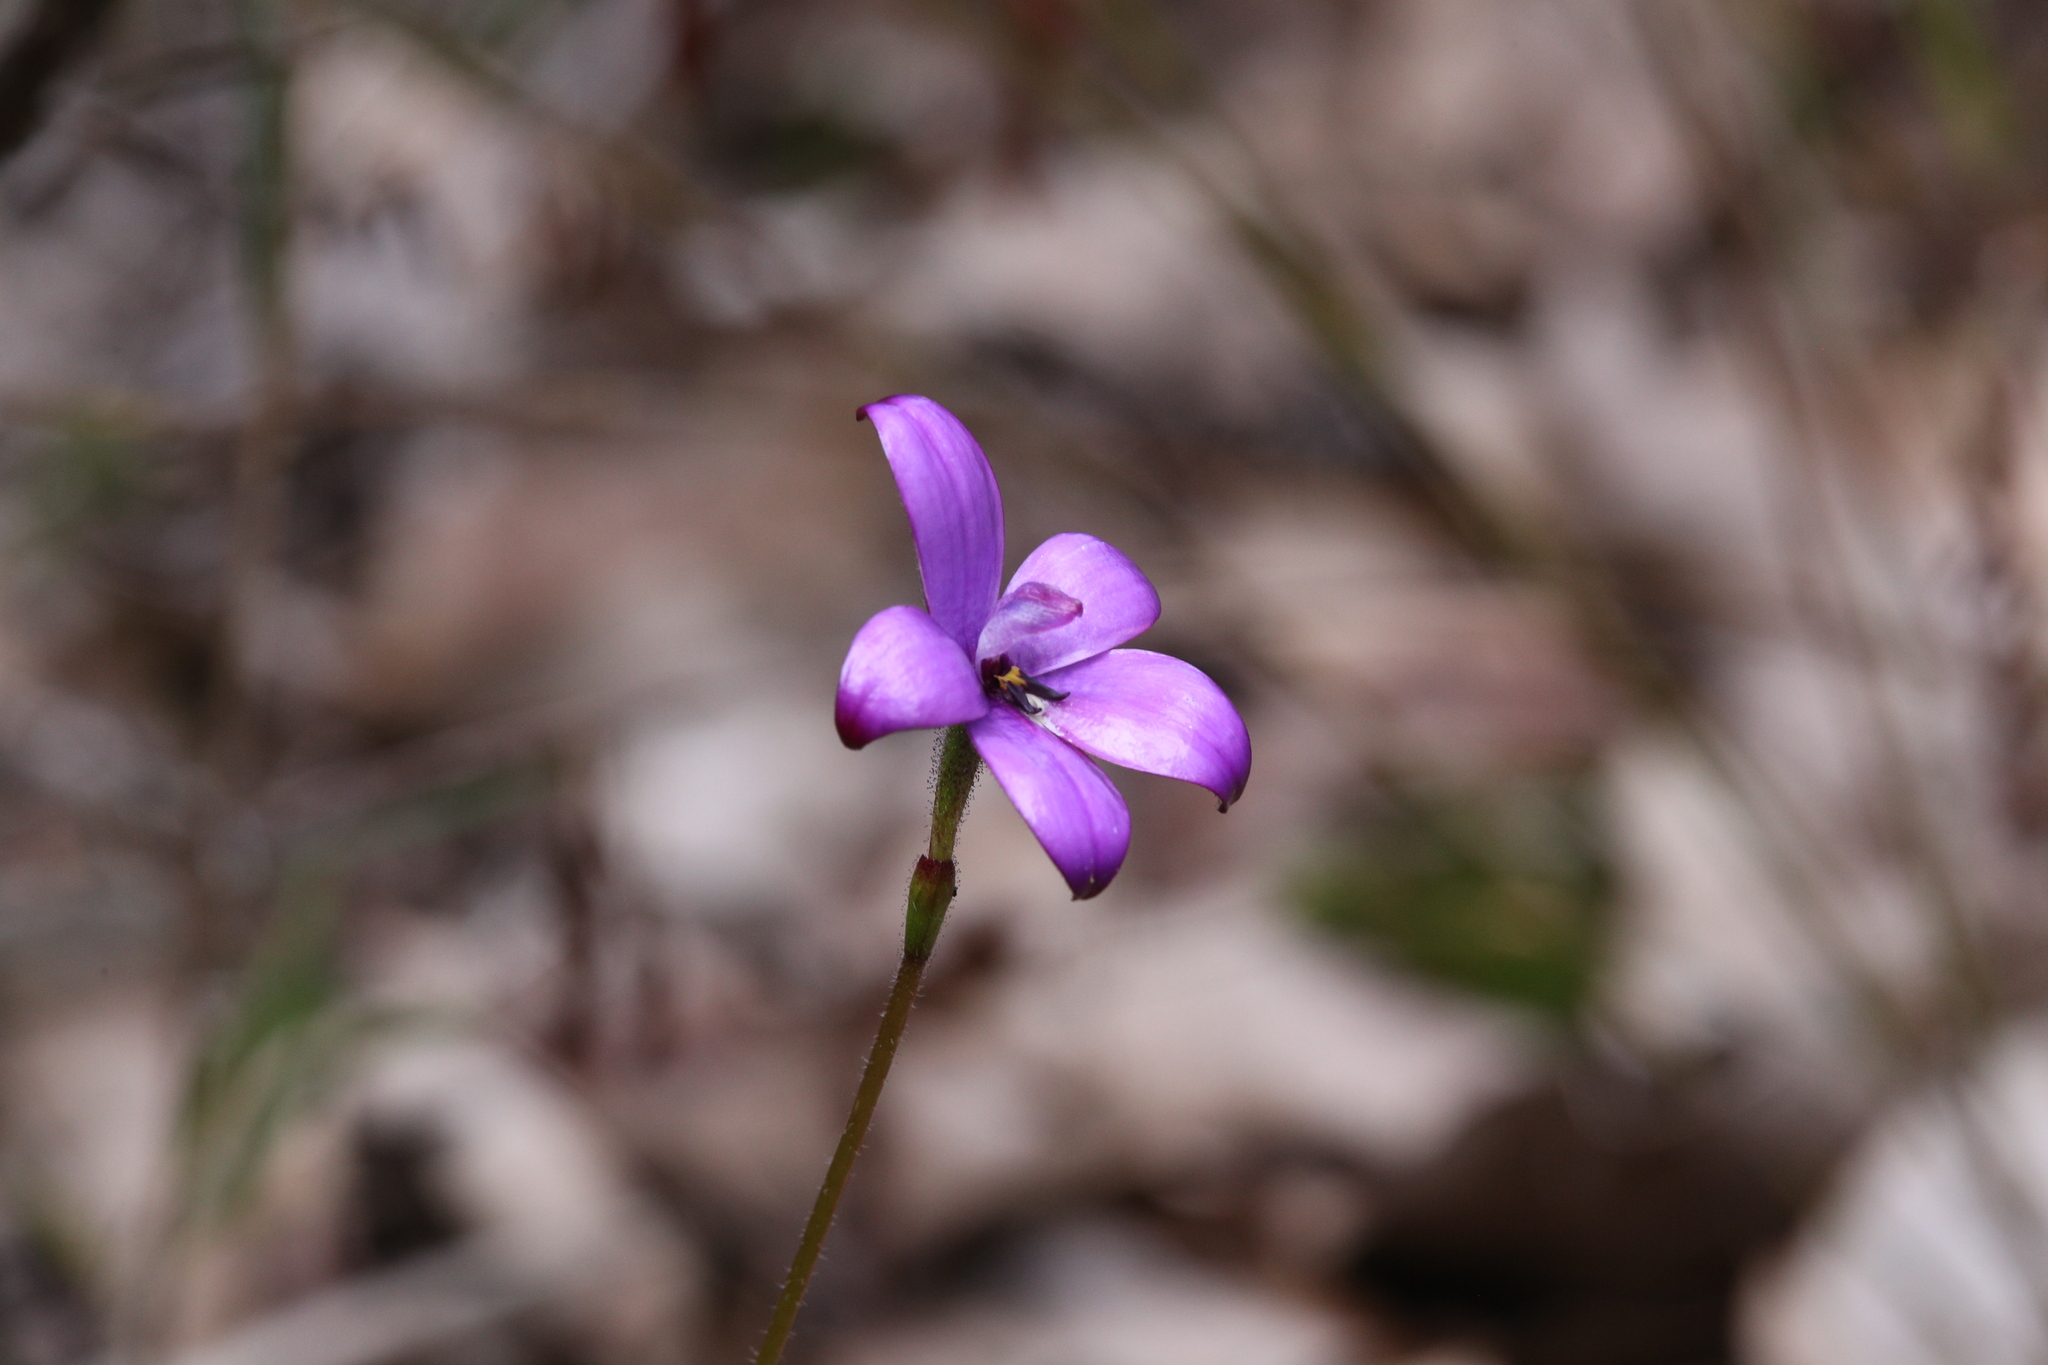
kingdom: Plantae
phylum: Tracheophyta
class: Liliopsida
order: Asparagales
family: Orchidaceae
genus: Caladenia
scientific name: Caladenia brunonis
